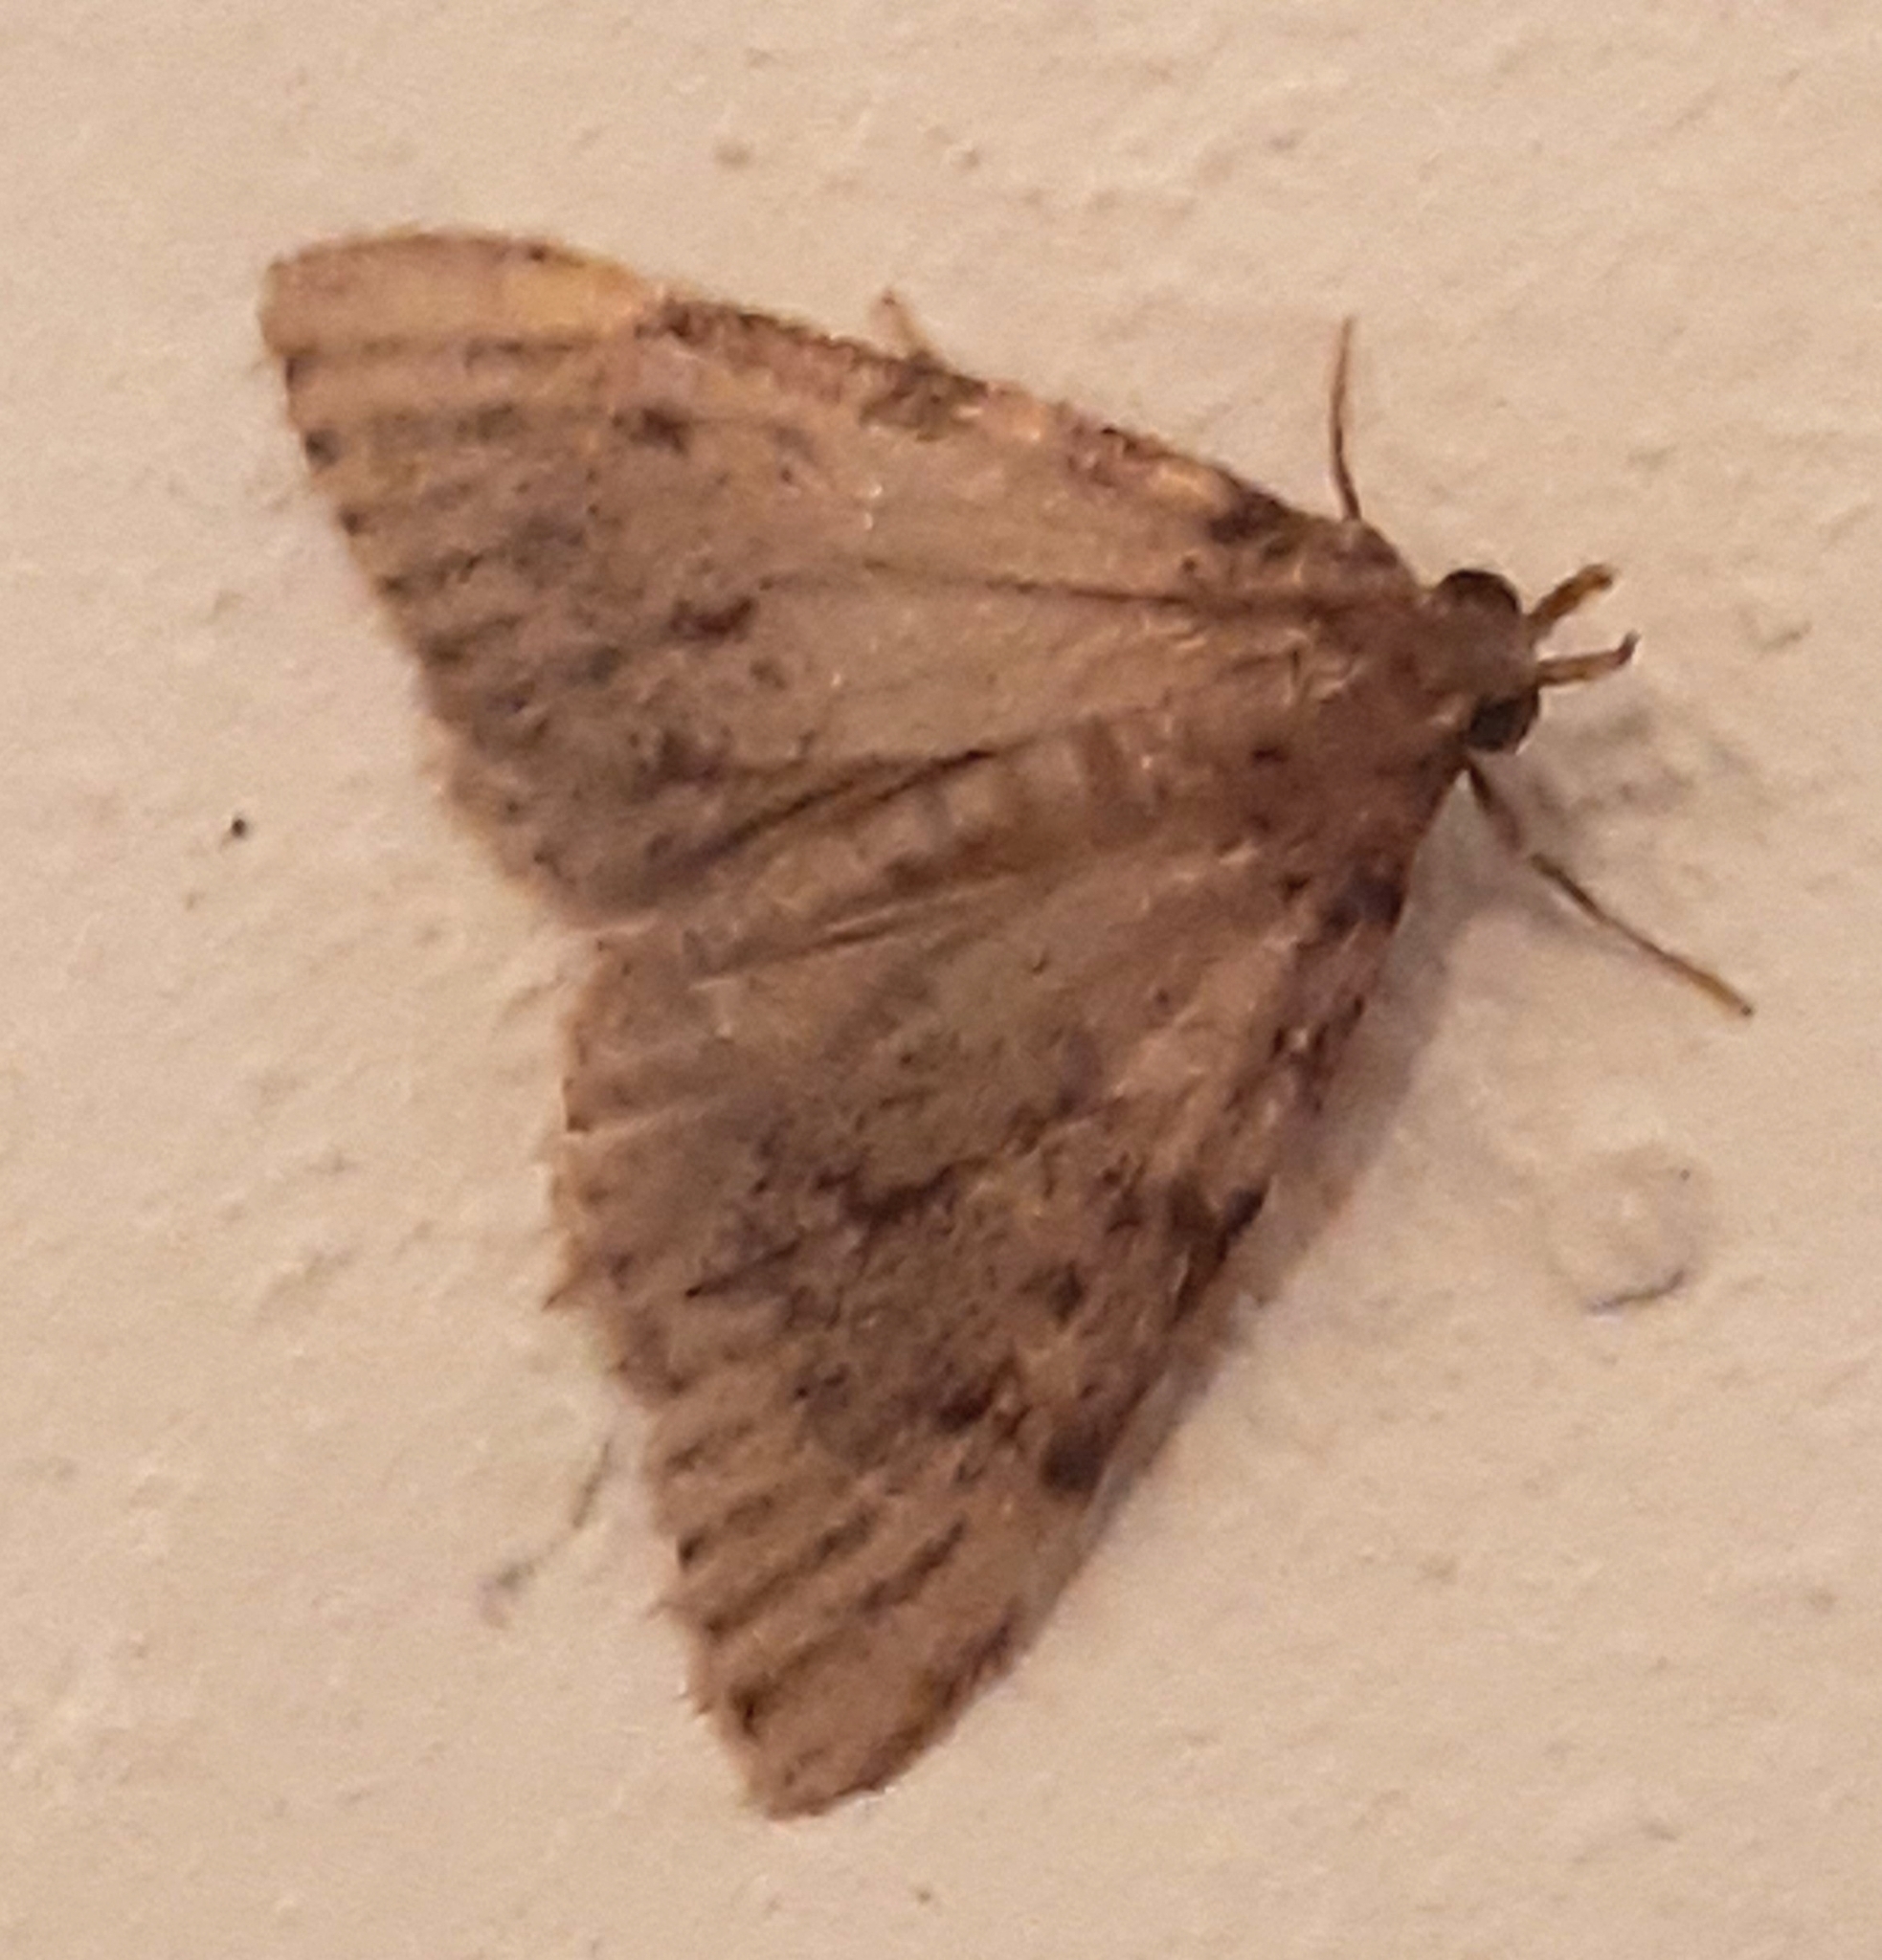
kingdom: Animalia
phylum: Arthropoda
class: Insecta
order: Lepidoptera
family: Pyralidae
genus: Aglossa
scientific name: Aglossa pinguinalis
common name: Large tabby
